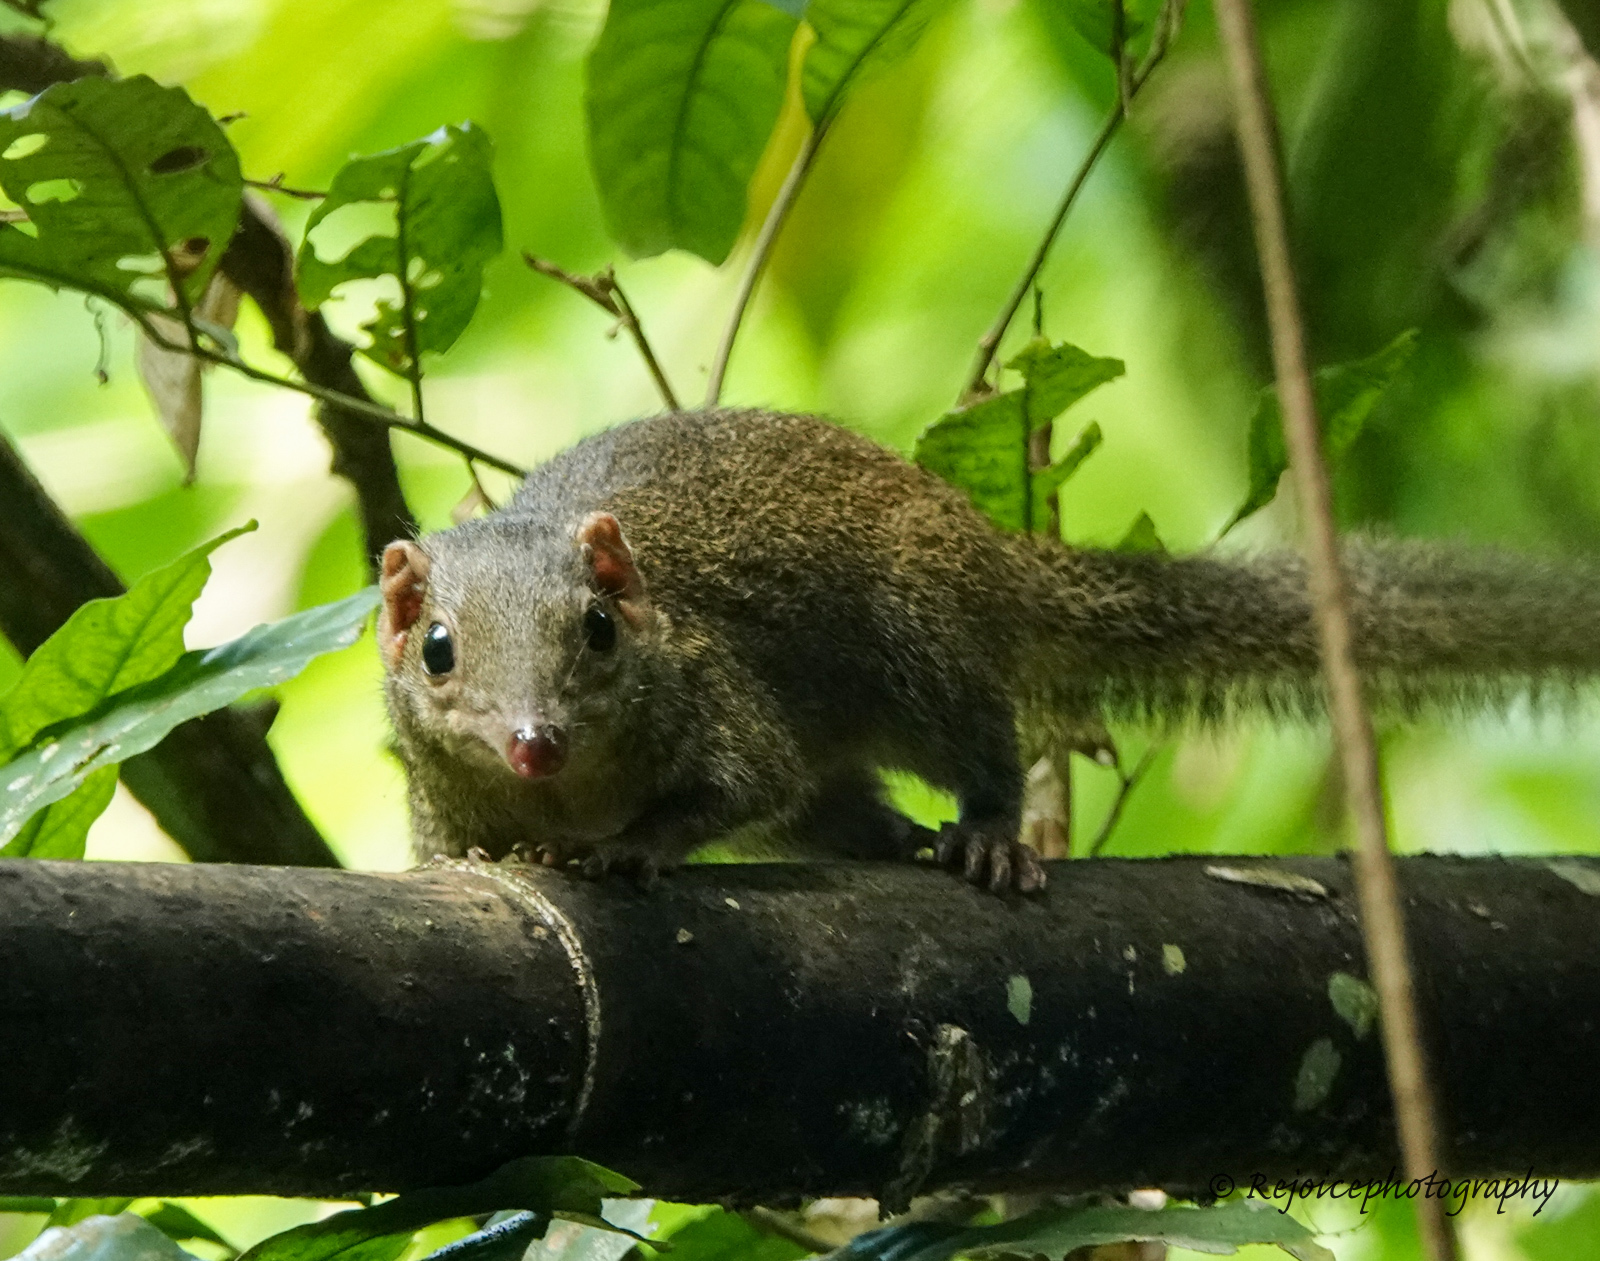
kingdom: Animalia
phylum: Chordata
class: Mammalia
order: Scandentia
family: Tupaiidae
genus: Tupaia
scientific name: Tupaia belangeri
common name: Northern treeshrew
